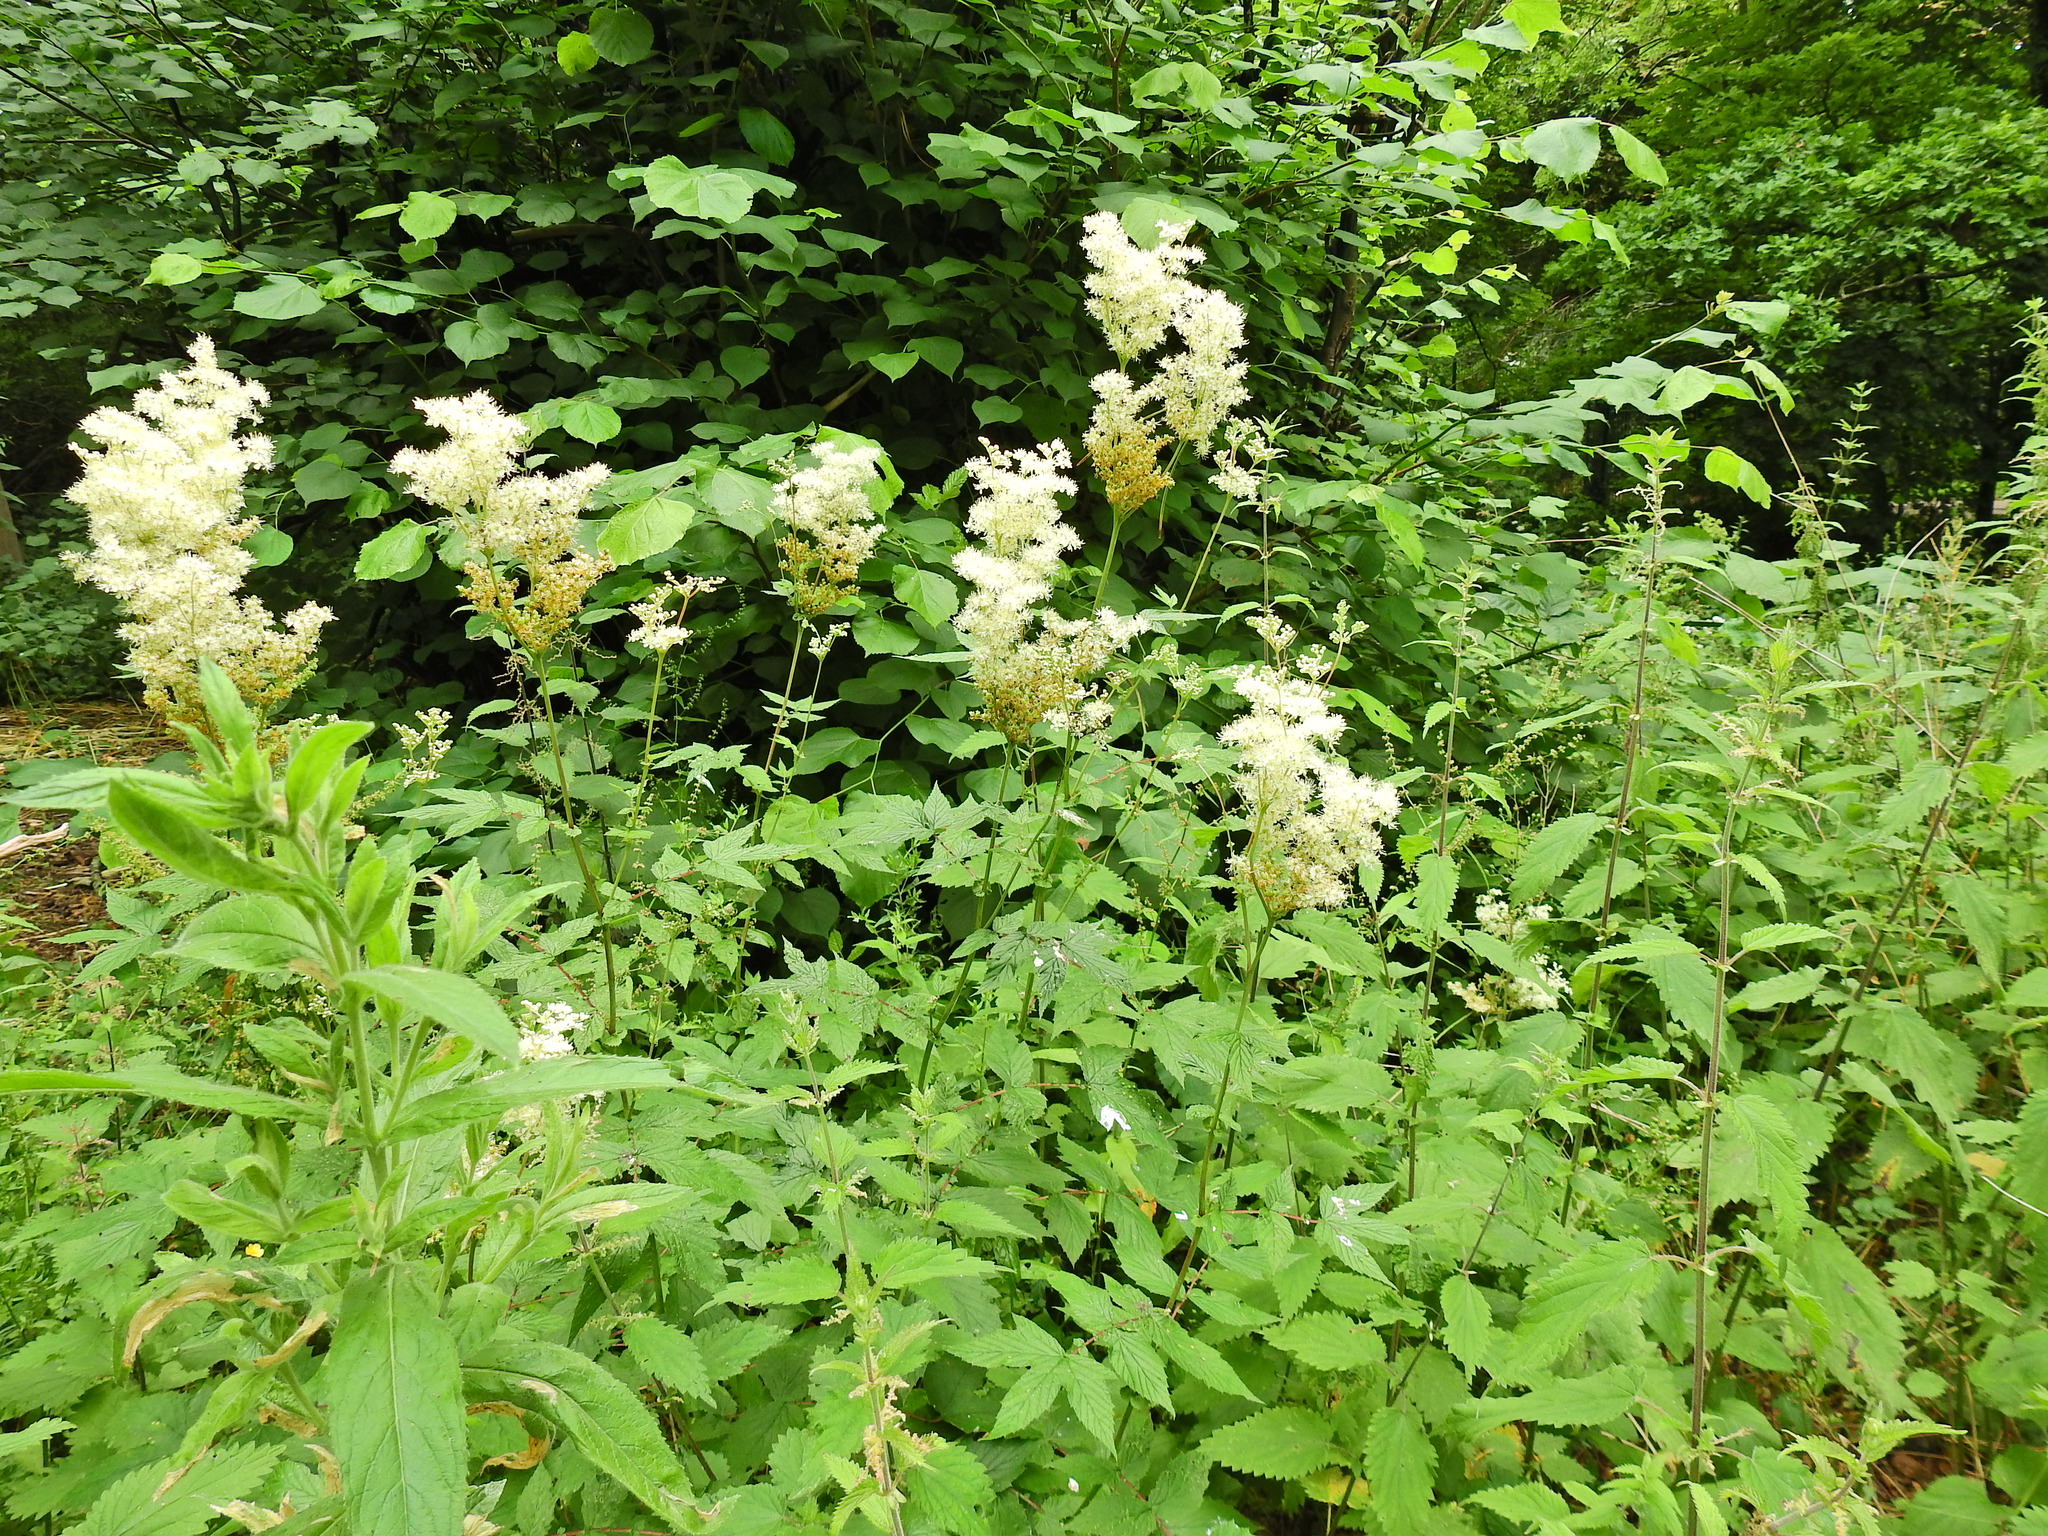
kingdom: Plantae
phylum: Tracheophyta
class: Magnoliopsida
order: Rosales
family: Rosaceae
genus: Filipendula
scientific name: Filipendula ulmaria
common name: Meadowsweet
